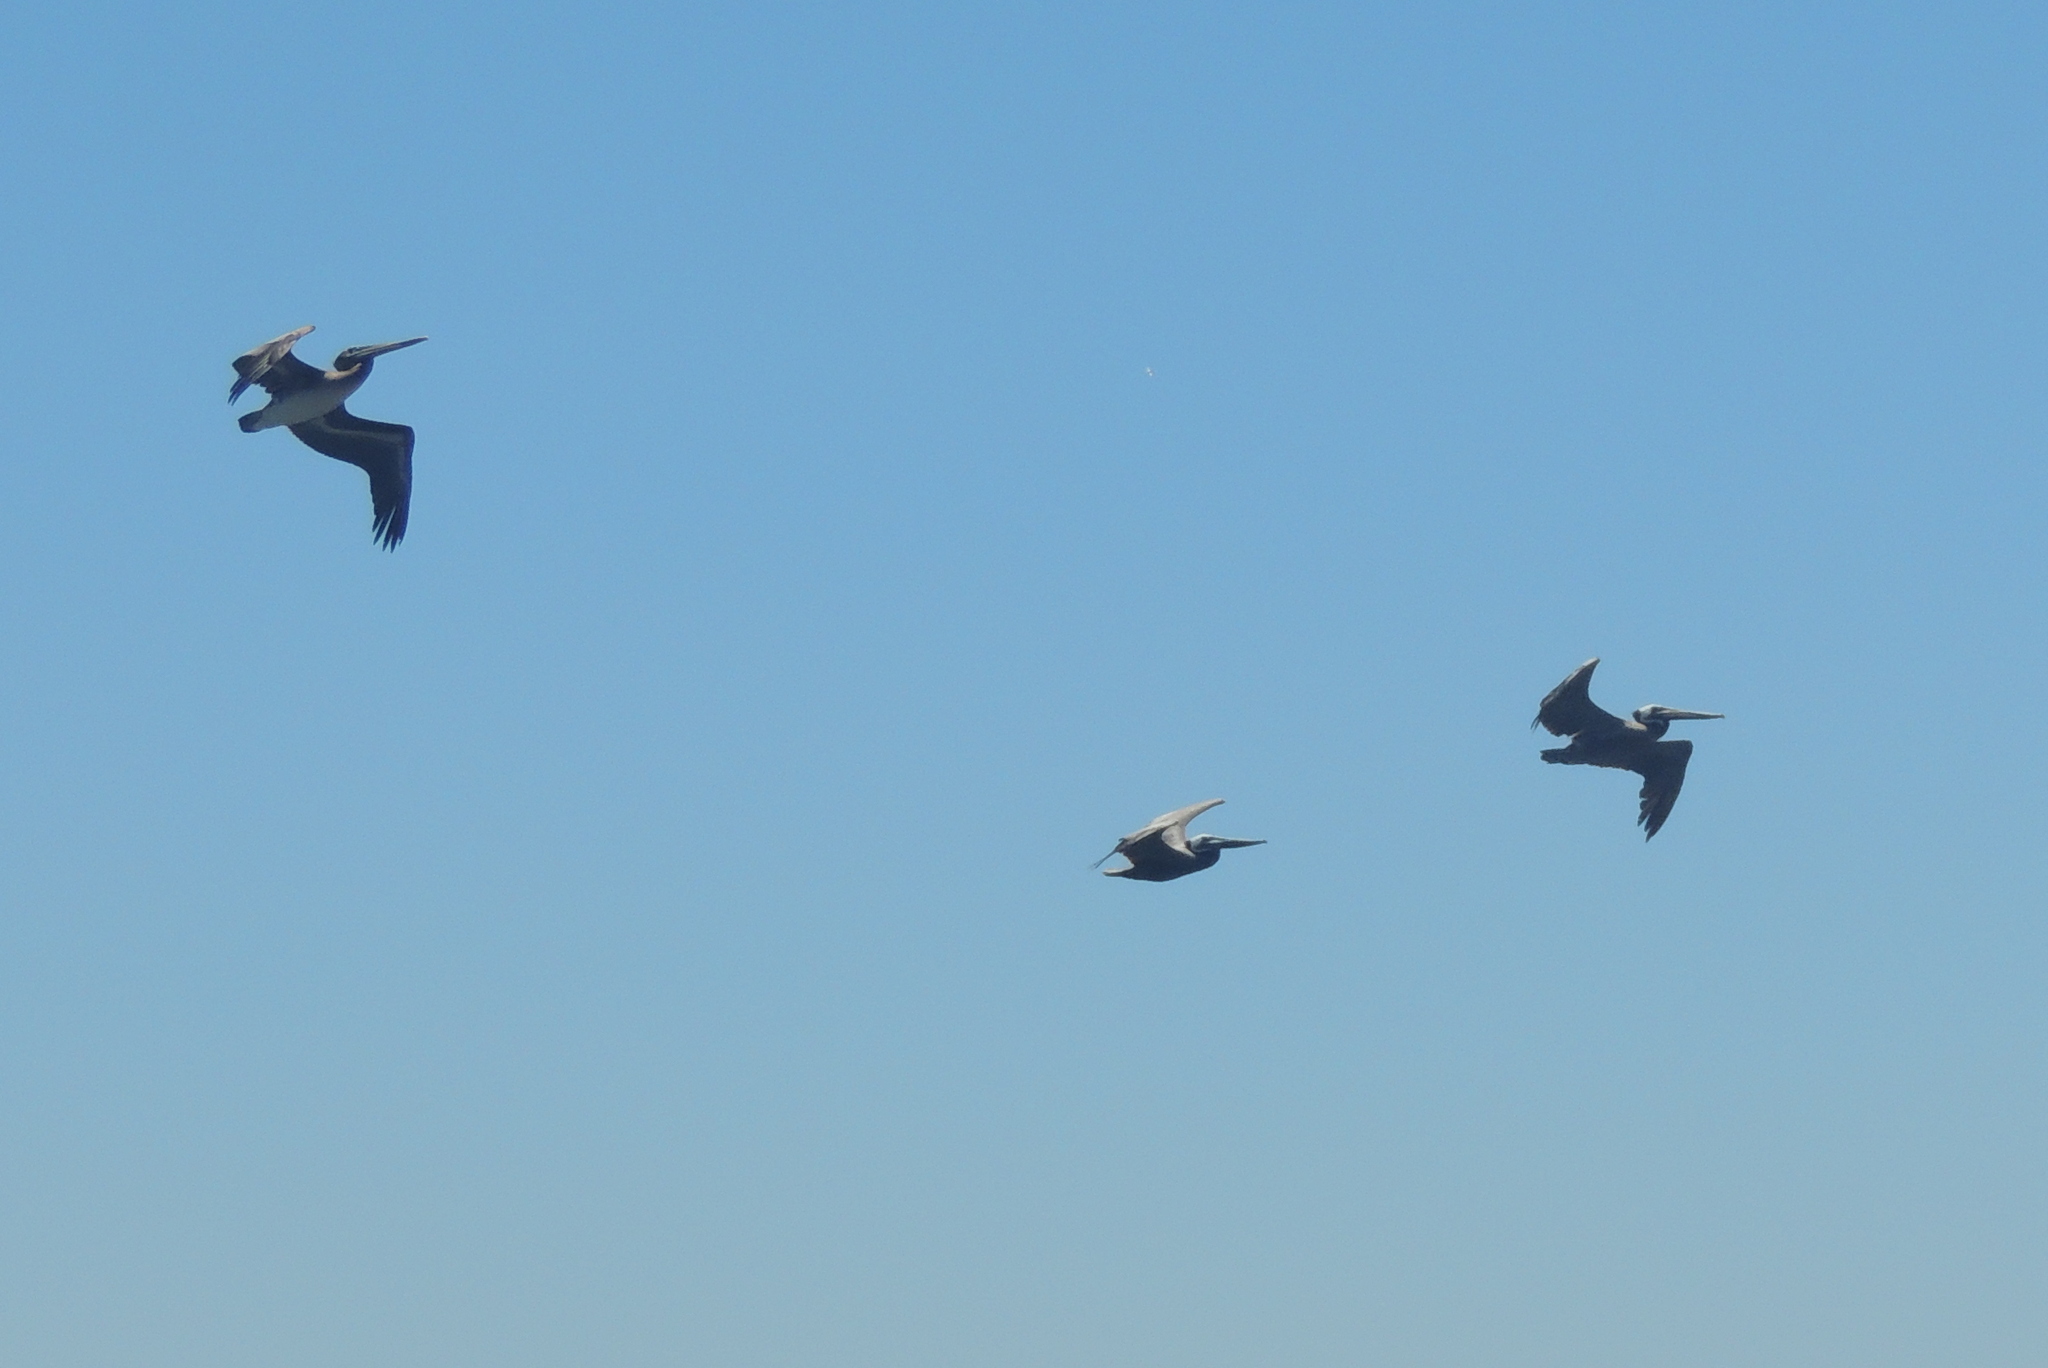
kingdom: Animalia
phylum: Chordata
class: Aves
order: Pelecaniformes
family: Pelecanidae
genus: Pelecanus
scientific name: Pelecanus occidentalis
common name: Brown pelican
